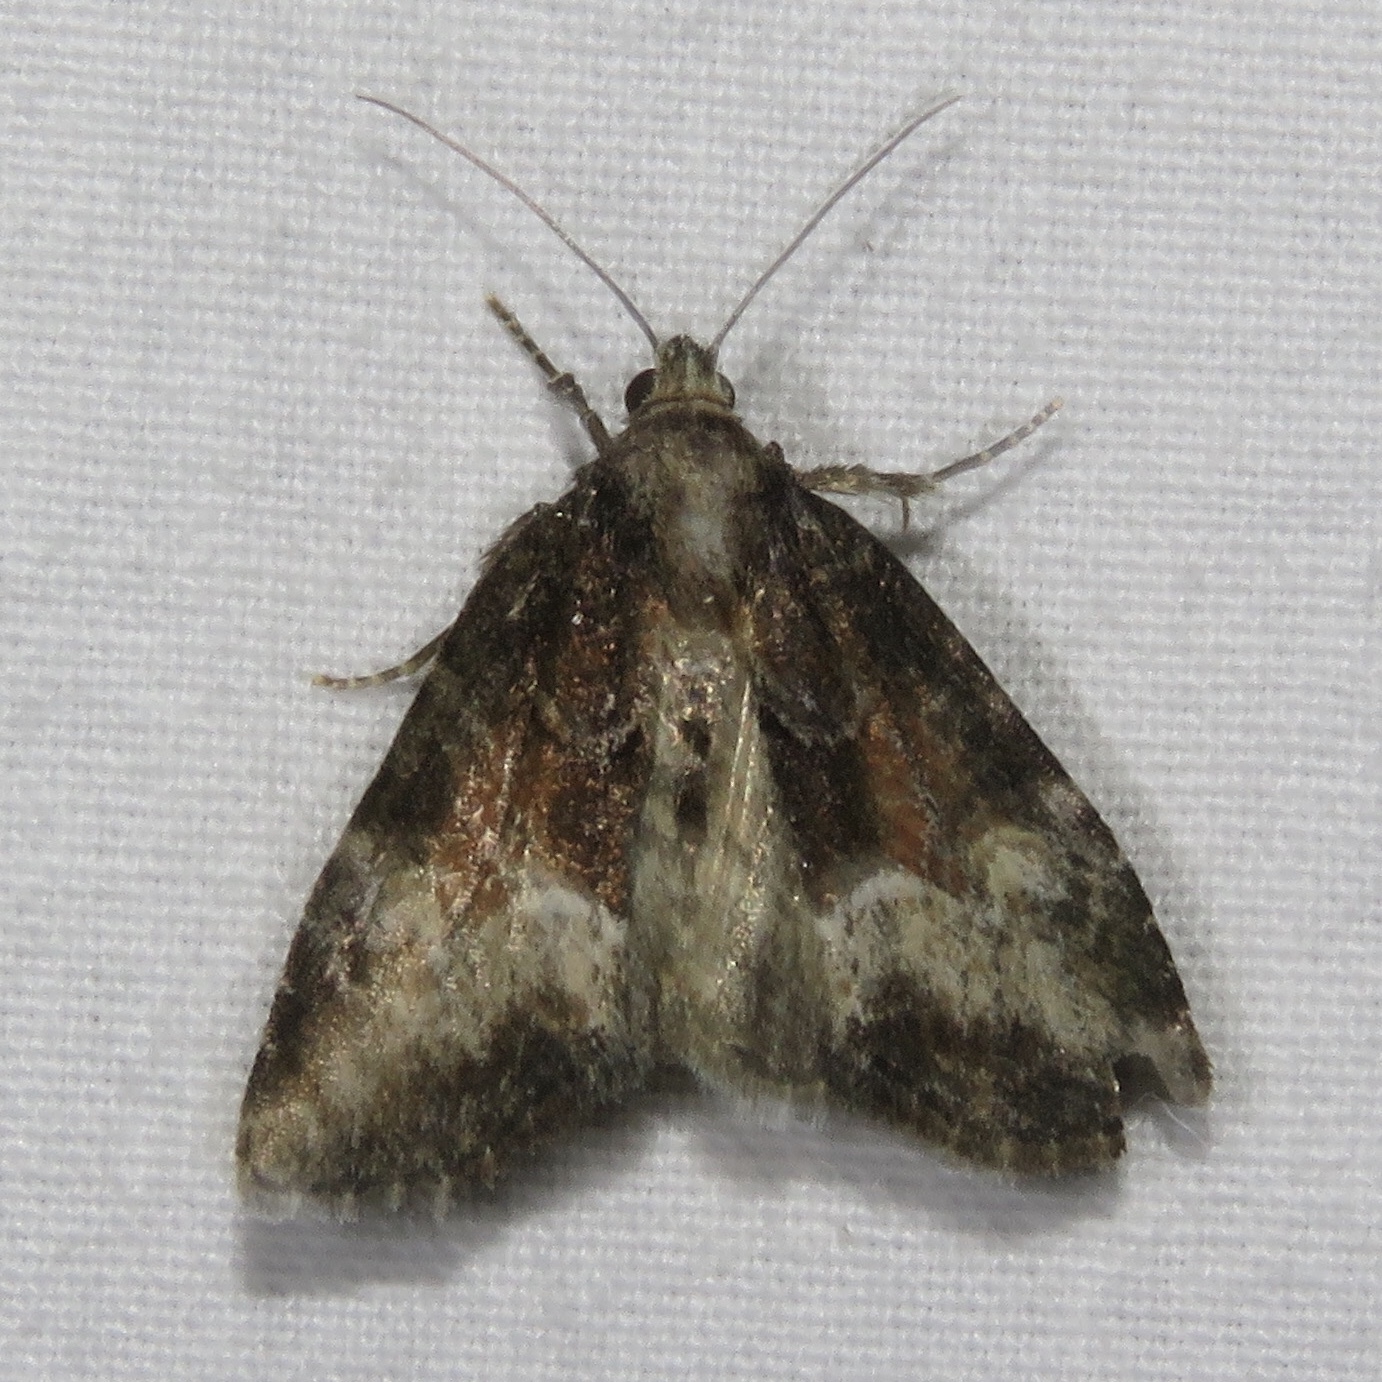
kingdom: Animalia
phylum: Arthropoda
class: Insecta
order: Lepidoptera
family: Noctuidae
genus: Neoligia
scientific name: Neoligia subjuncta
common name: Connected brocade
